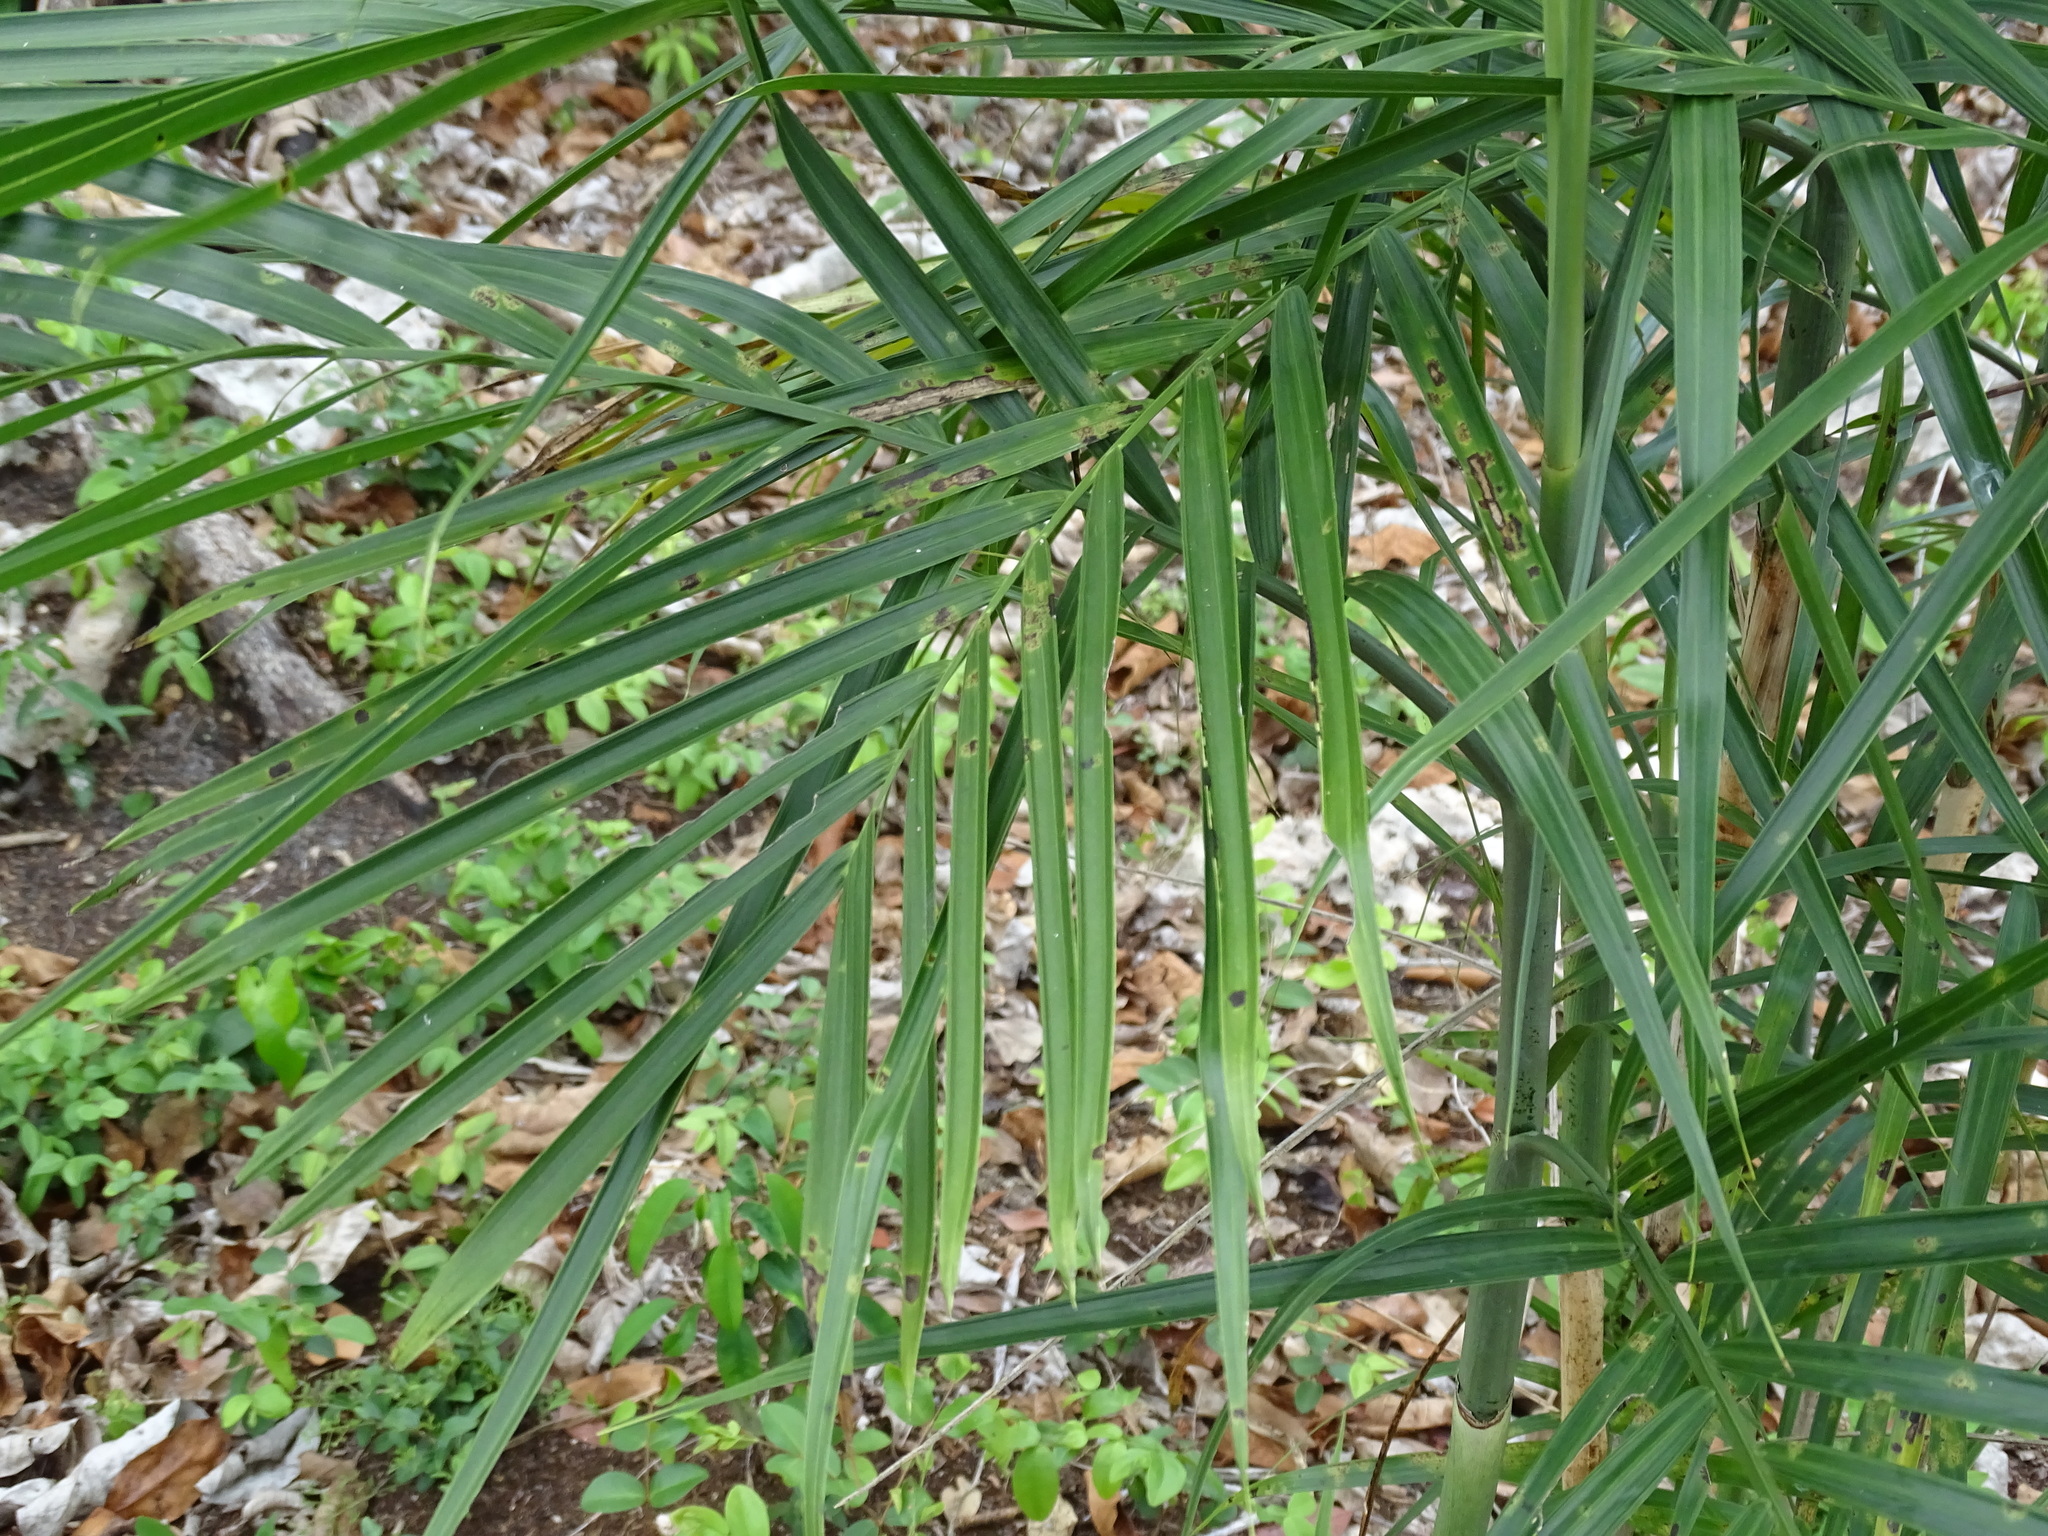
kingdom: Plantae
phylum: Tracheophyta
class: Liliopsida
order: Arecales
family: Arecaceae
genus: Chamaedorea
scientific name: Chamaedorea seifrizii
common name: Seifriz's chamaedorea
